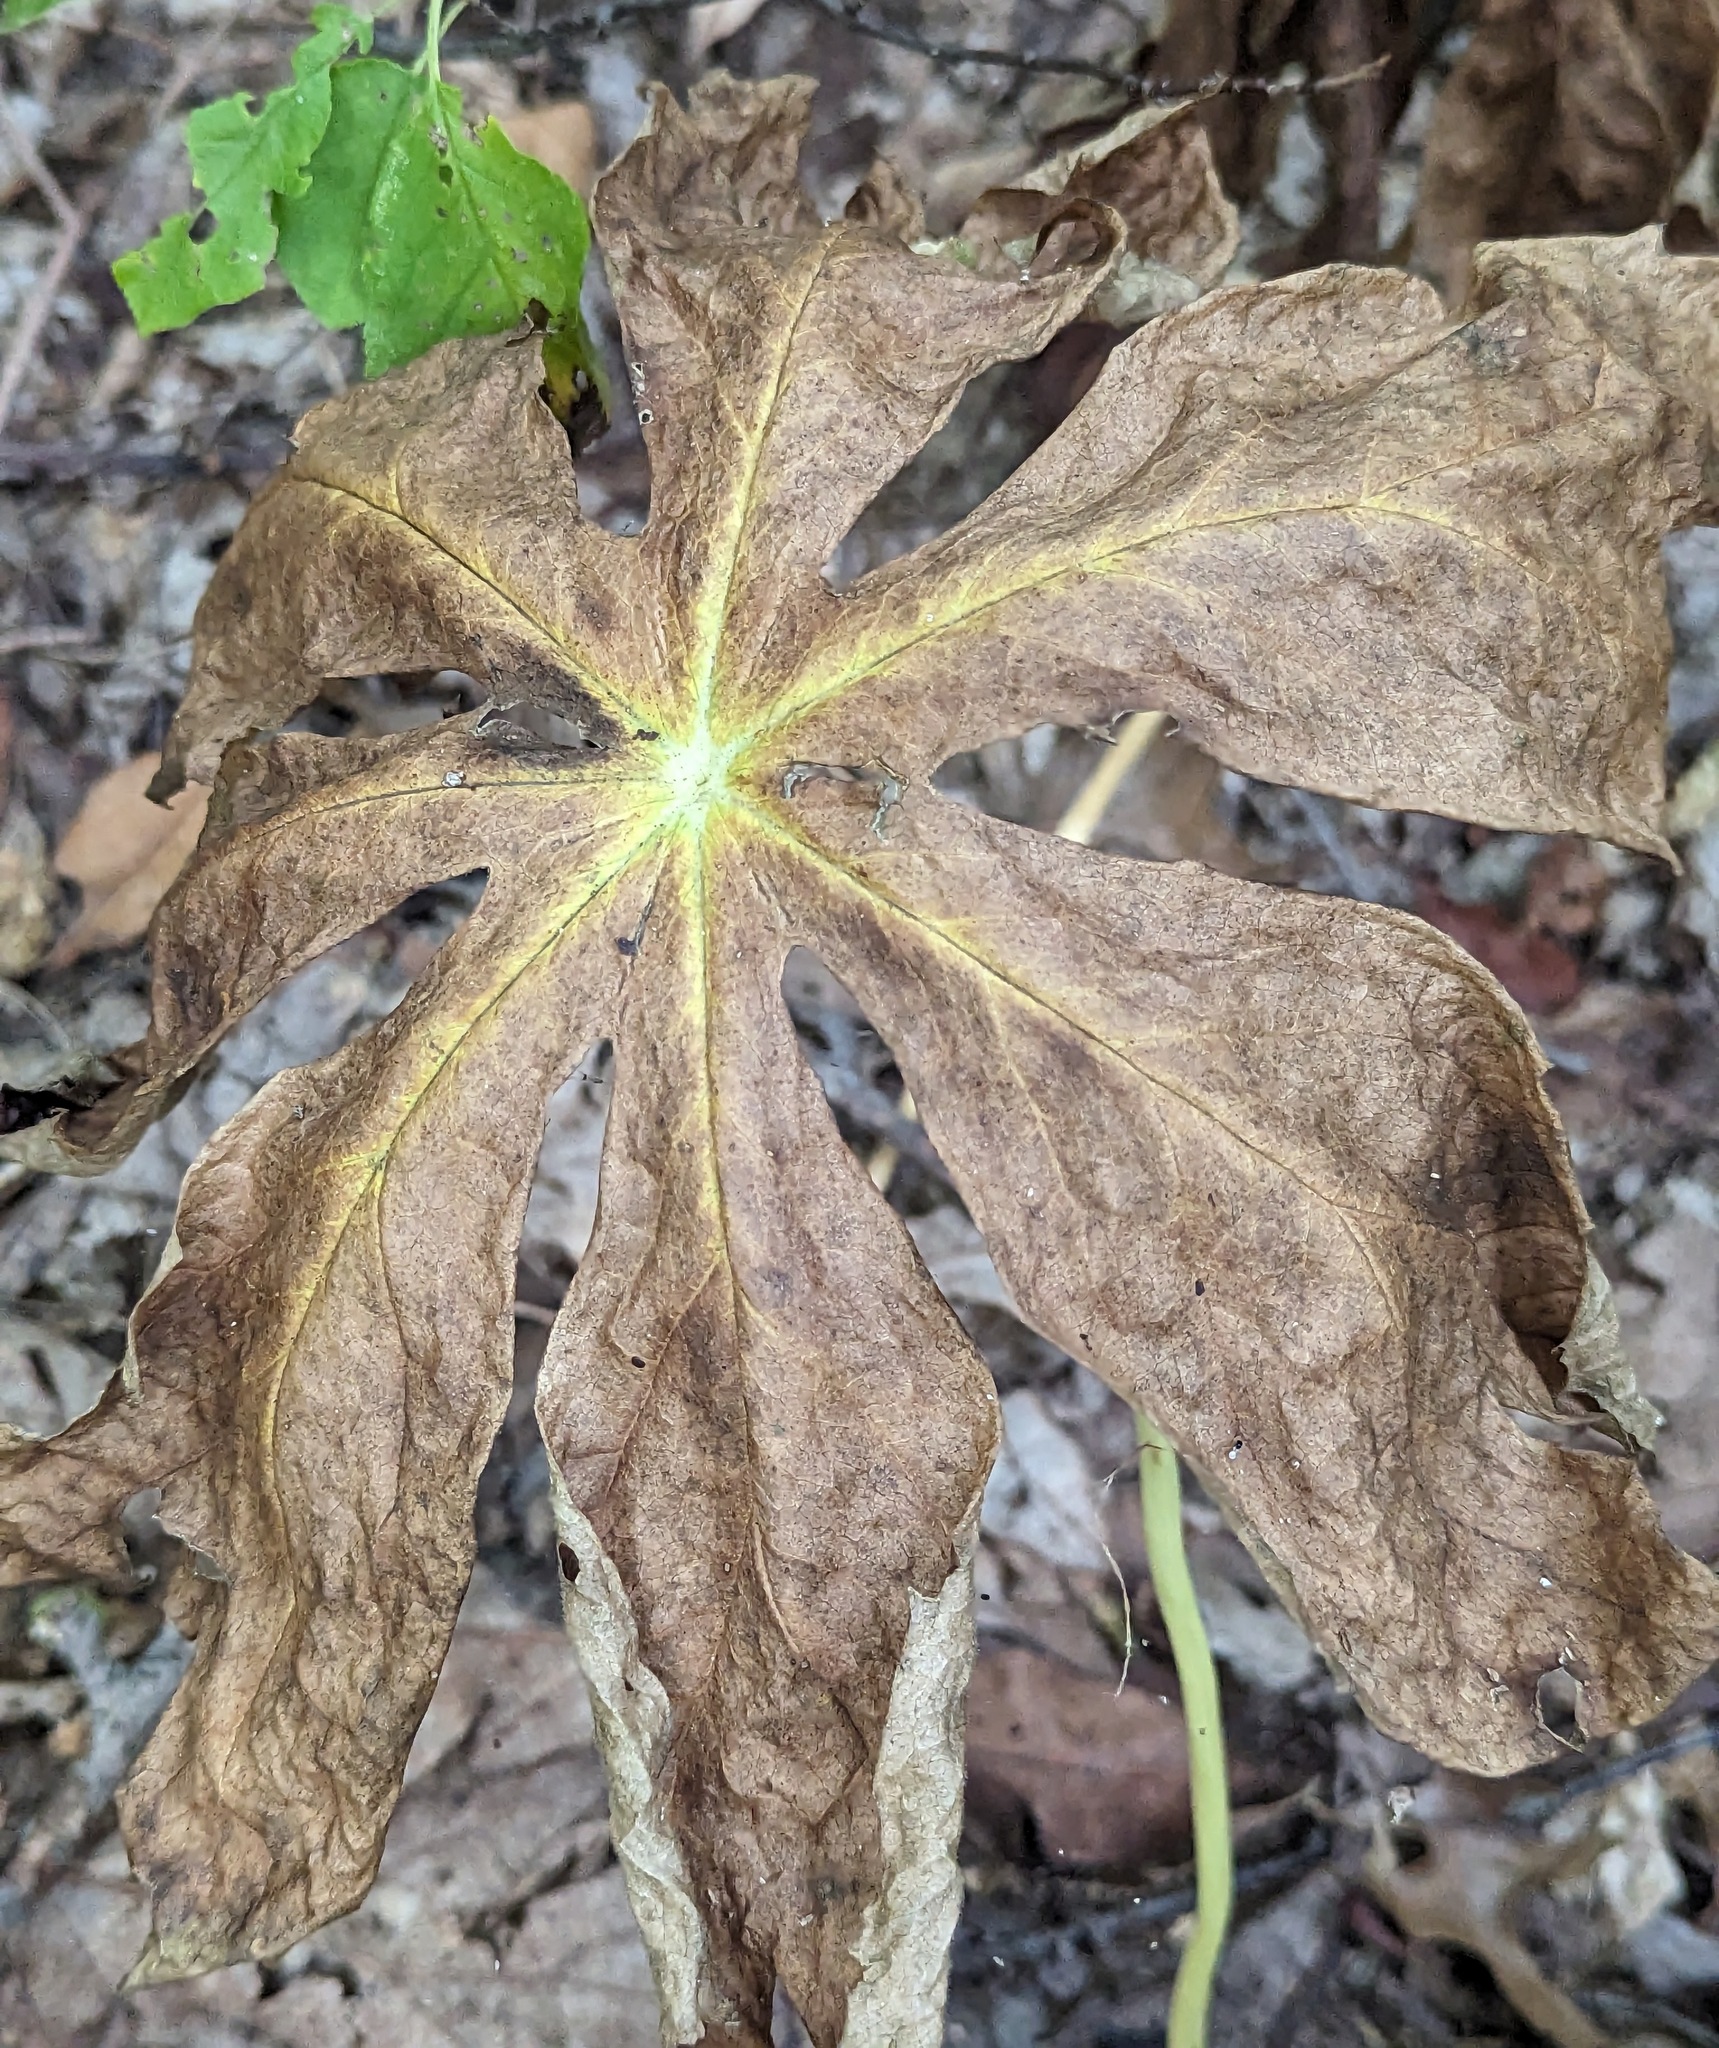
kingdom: Plantae
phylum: Tracheophyta
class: Magnoliopsida
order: Ranunculales
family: Berberidaceae
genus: Podophyllum
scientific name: Podophyllum peltatum
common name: Wild mandrake
